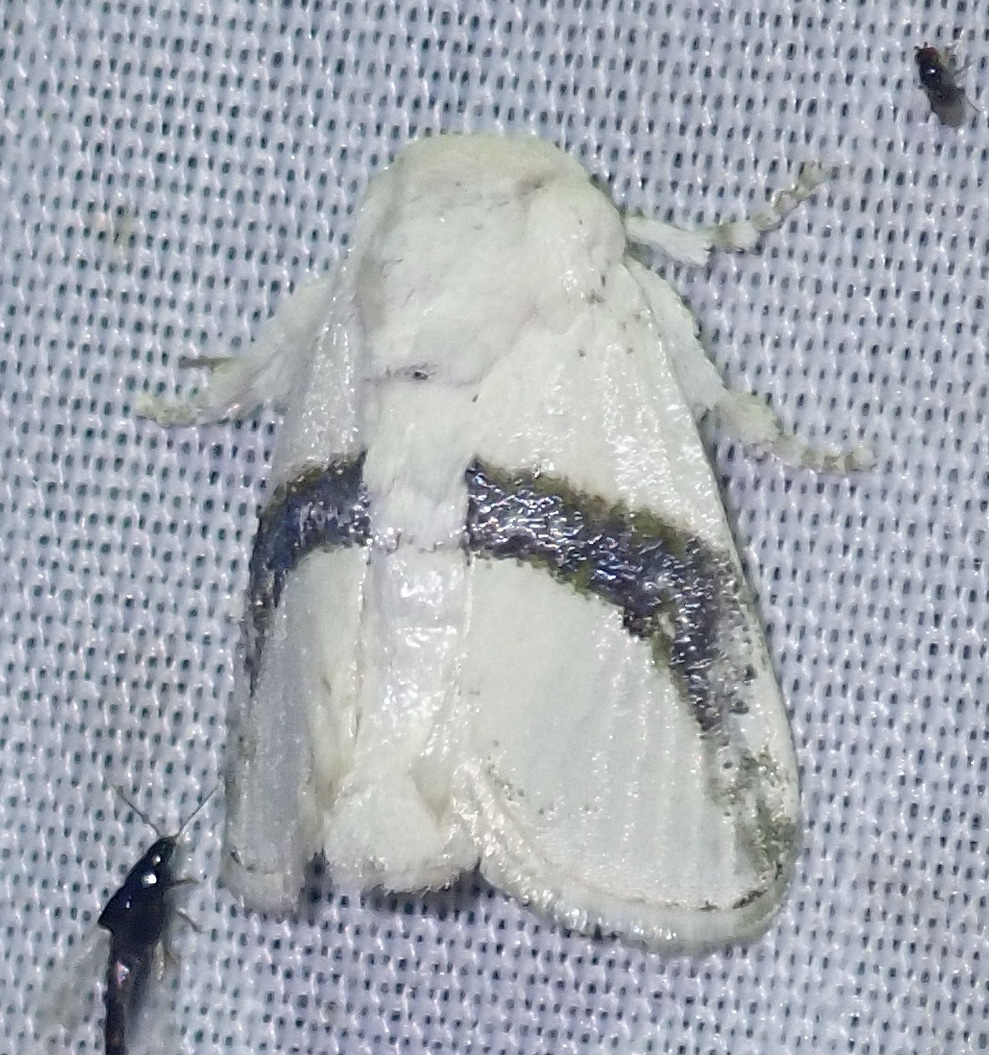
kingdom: Animalia
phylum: Arthropoda
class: Insecta
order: Lepidoptera
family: Limacodidae
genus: Afraltha
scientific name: Afraltha chionostola
